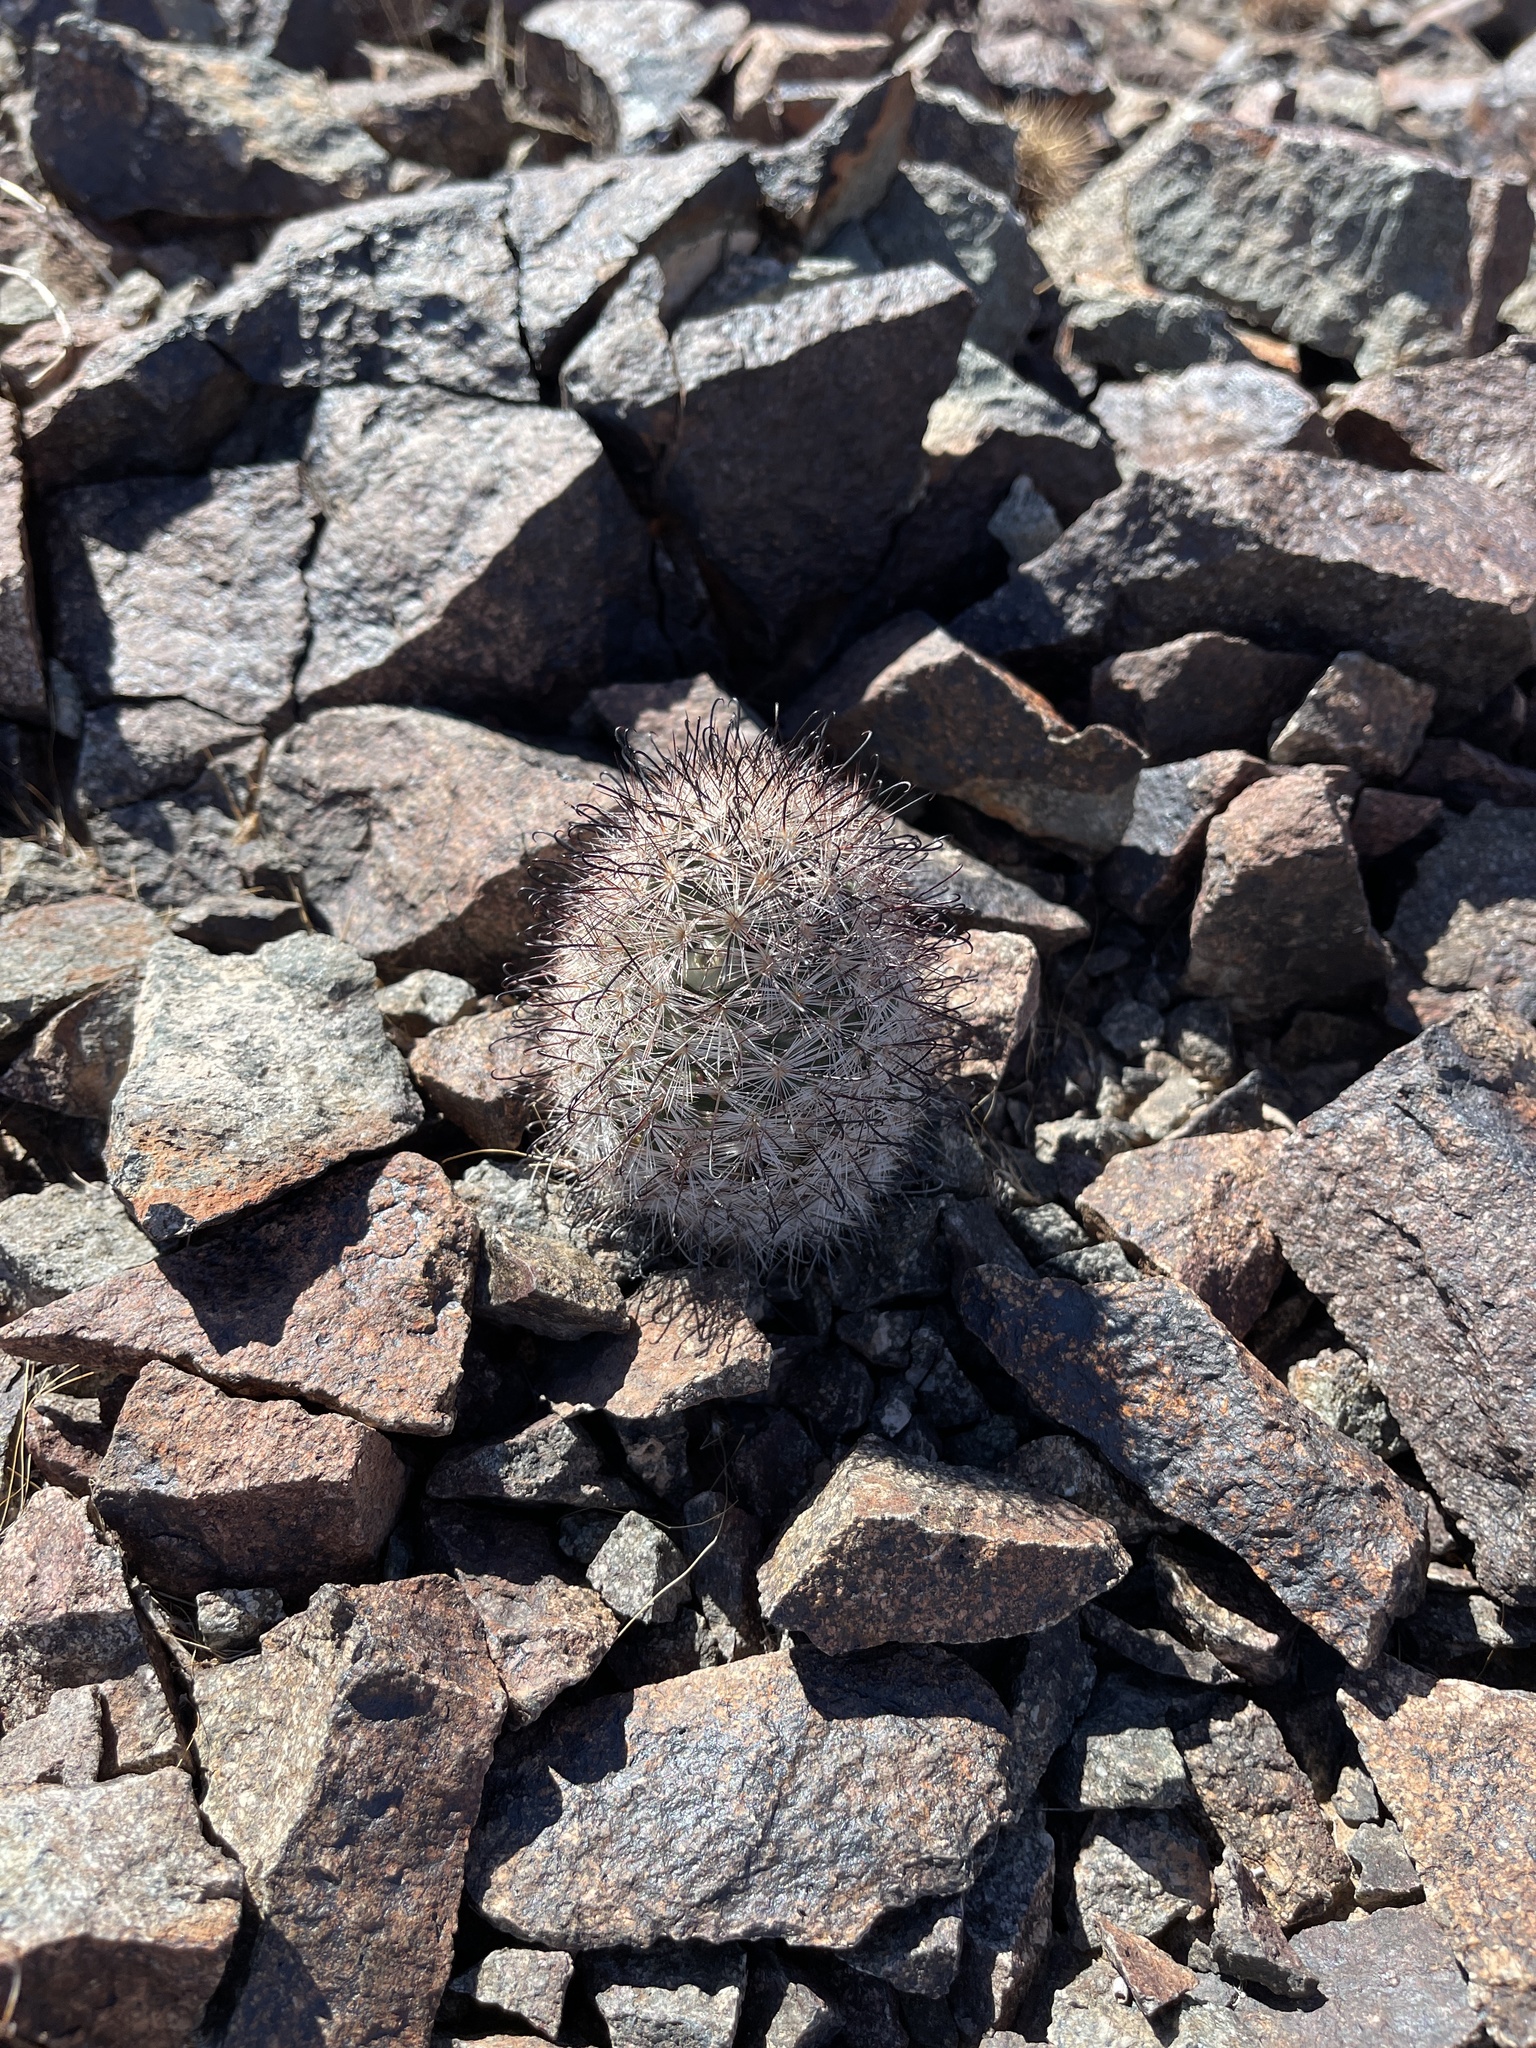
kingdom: Plantae
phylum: Tracheophyta
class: Magnoliopsida
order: Caryophyllales
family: Cactaceae
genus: Cochemiea
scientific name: Cochemiea tetrancistra
